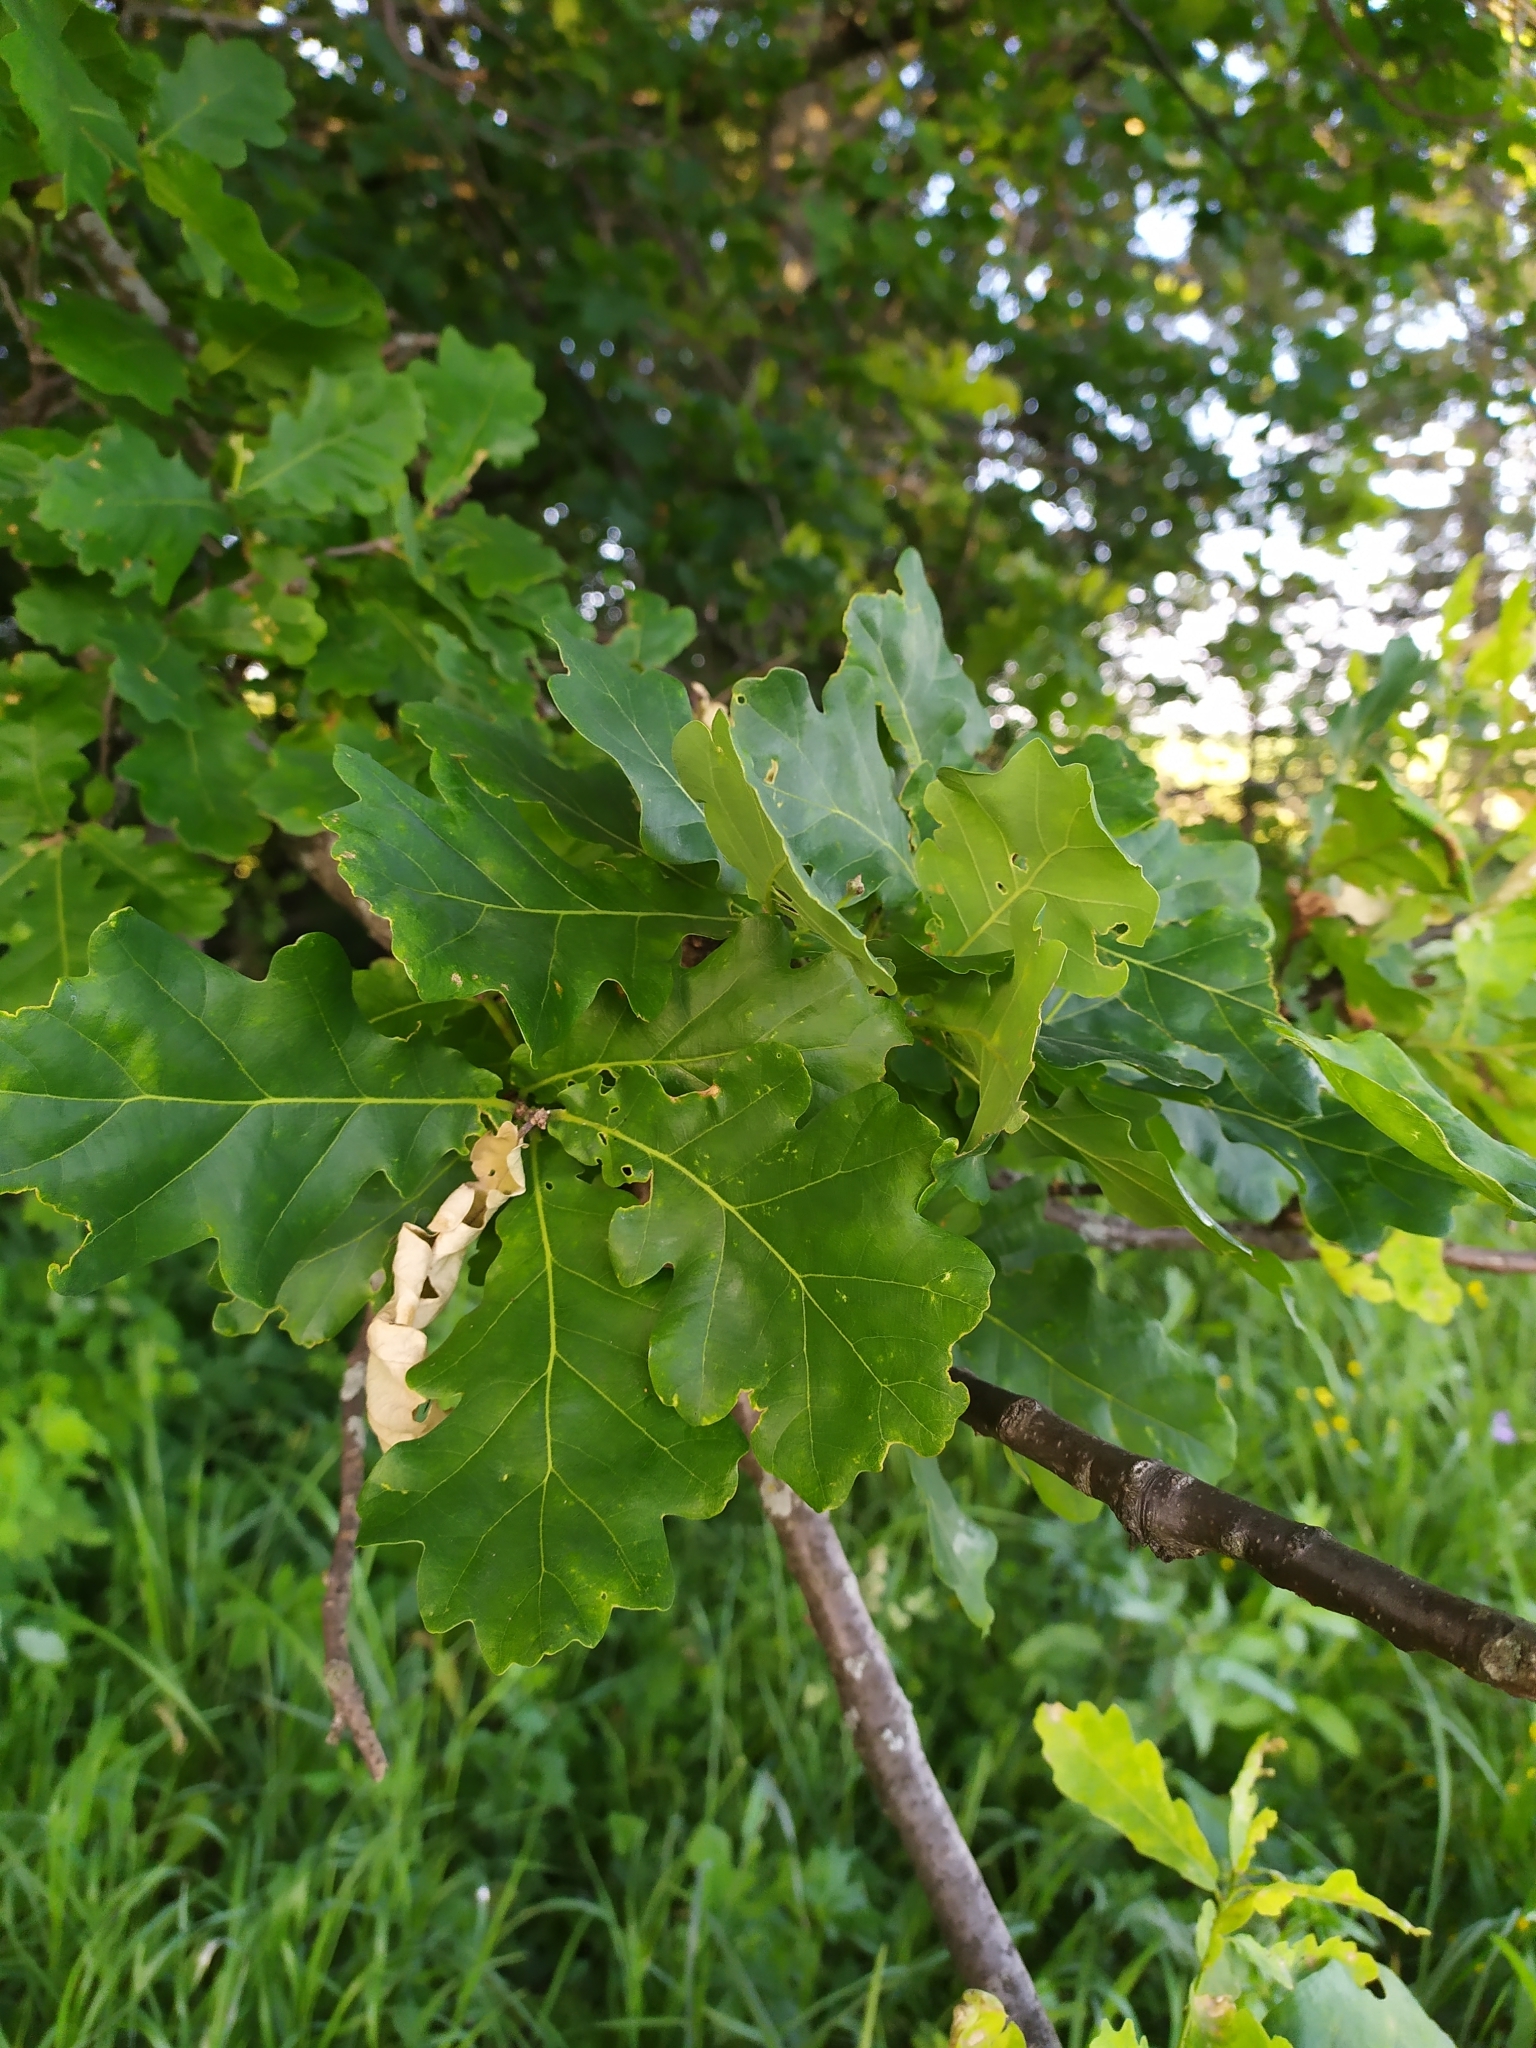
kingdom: Plantae
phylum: Tracheophyta
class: Magnoliopsida
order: Fagales
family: Fagaceae
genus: Quercus
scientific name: Quercus robur
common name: Pedunculate oak
